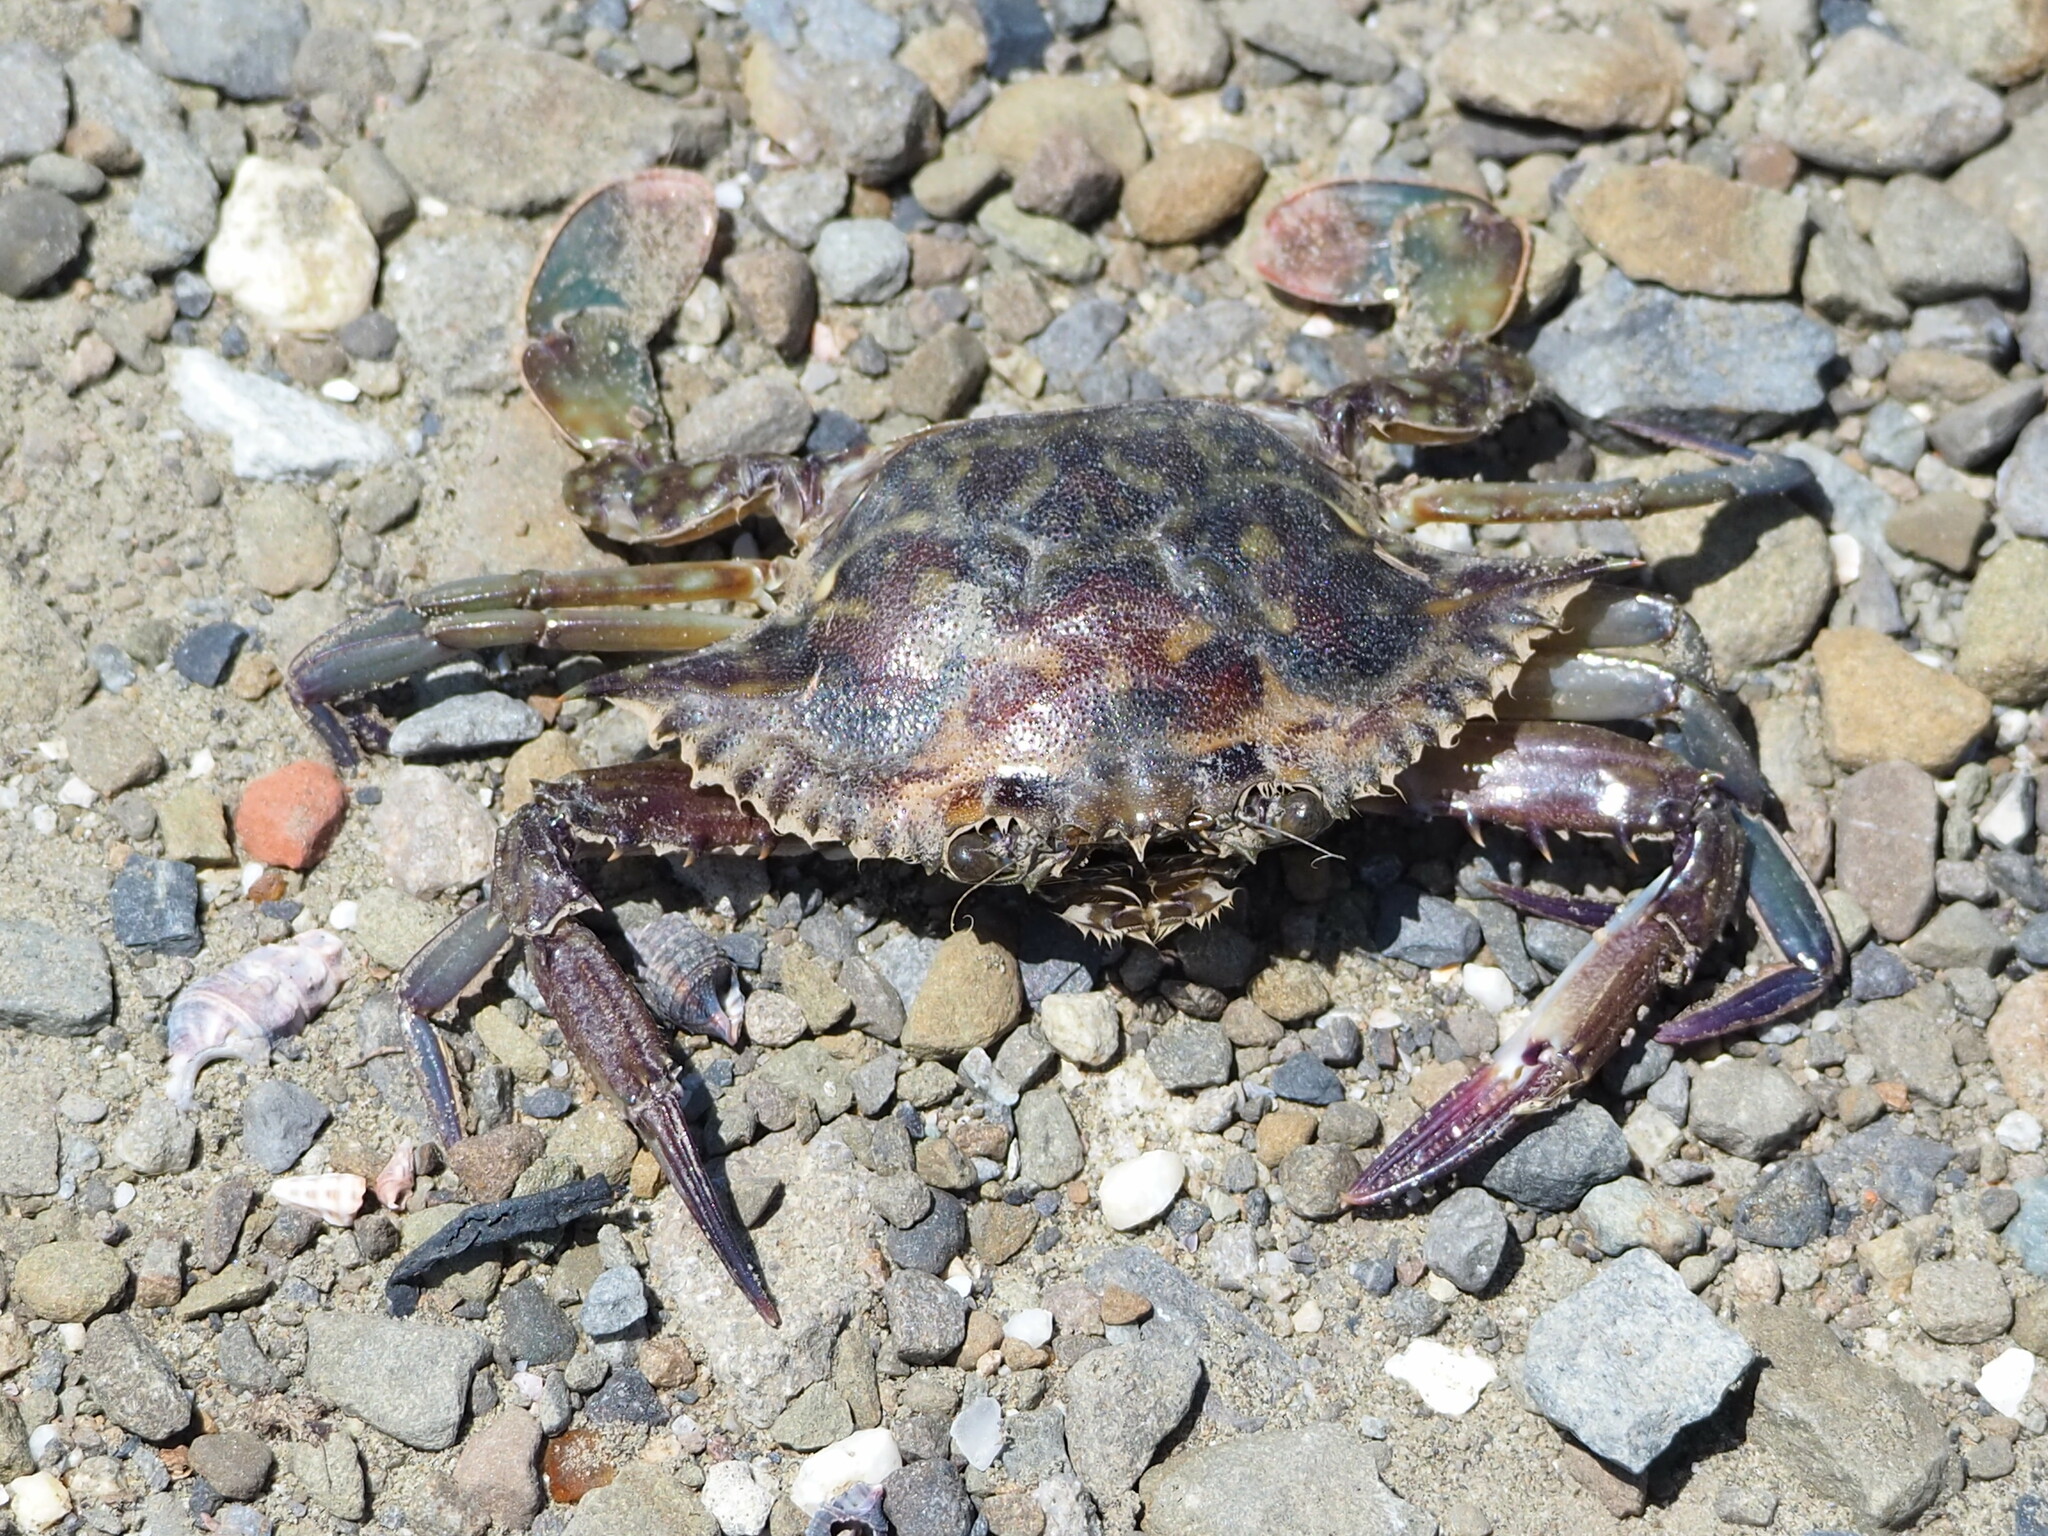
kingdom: Animalia
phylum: Arthropoda
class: Malacostraca
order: Decapoda
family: Portunidae
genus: Portunus
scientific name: Portunus pelagicus
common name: Blue swimming crab
